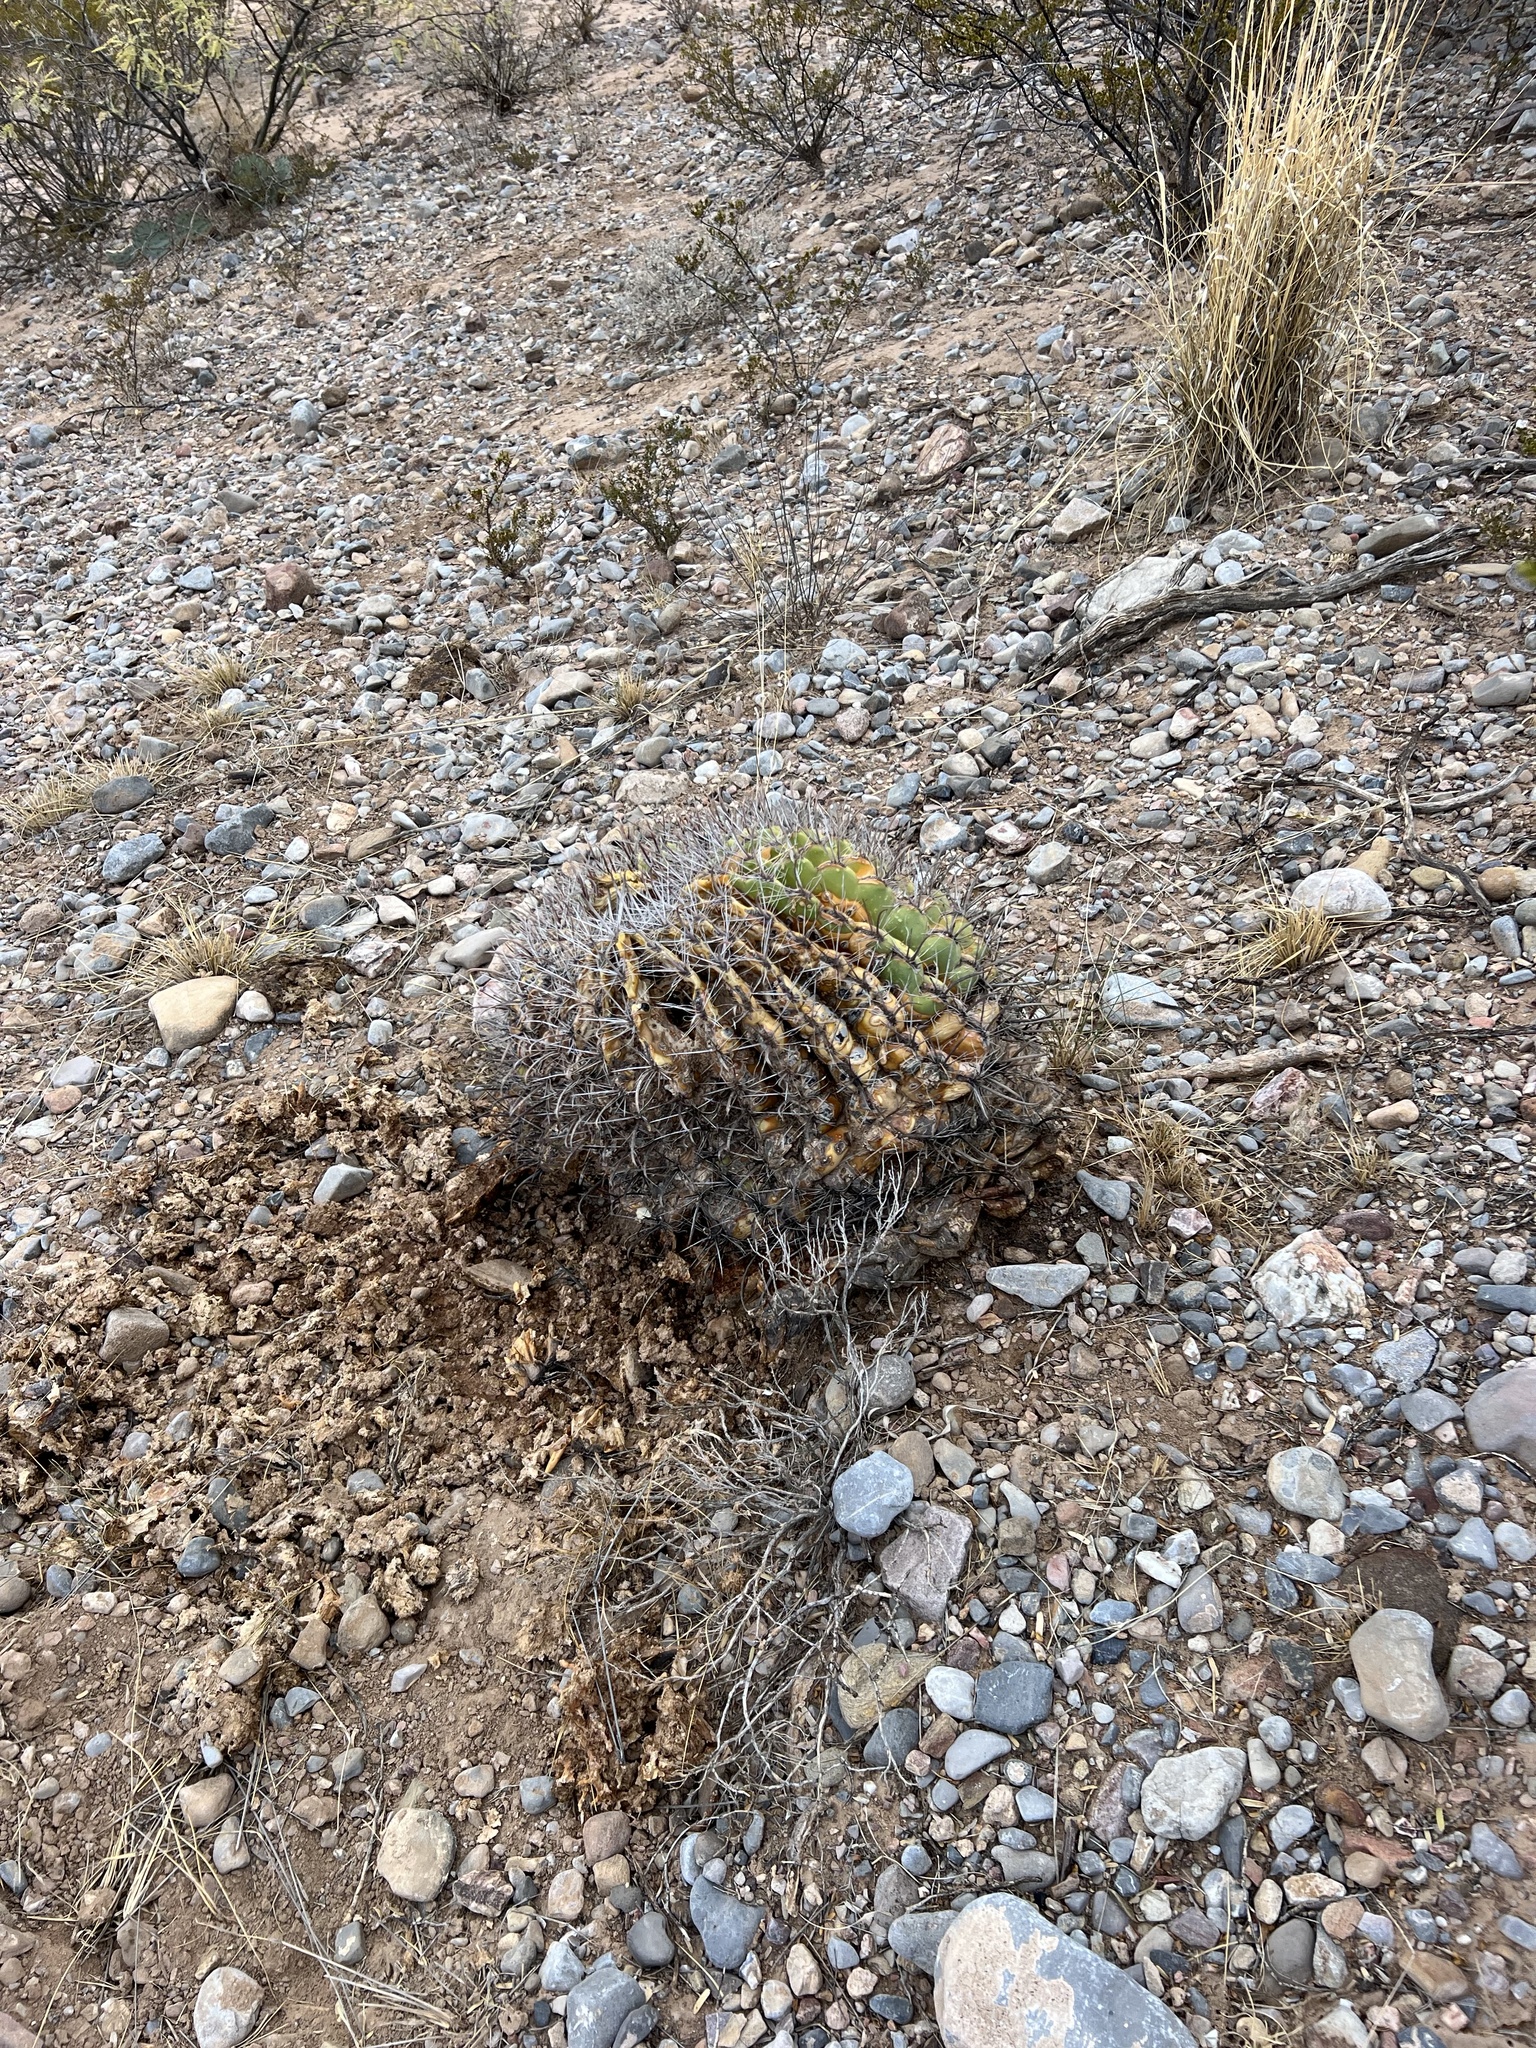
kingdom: Plantae
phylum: Tracheophyta
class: Magnoliopsida
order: Caryophyllales
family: Cactaceae
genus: Ferocactus
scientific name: Ferocactus wislizeni
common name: Candy barrel cactus
